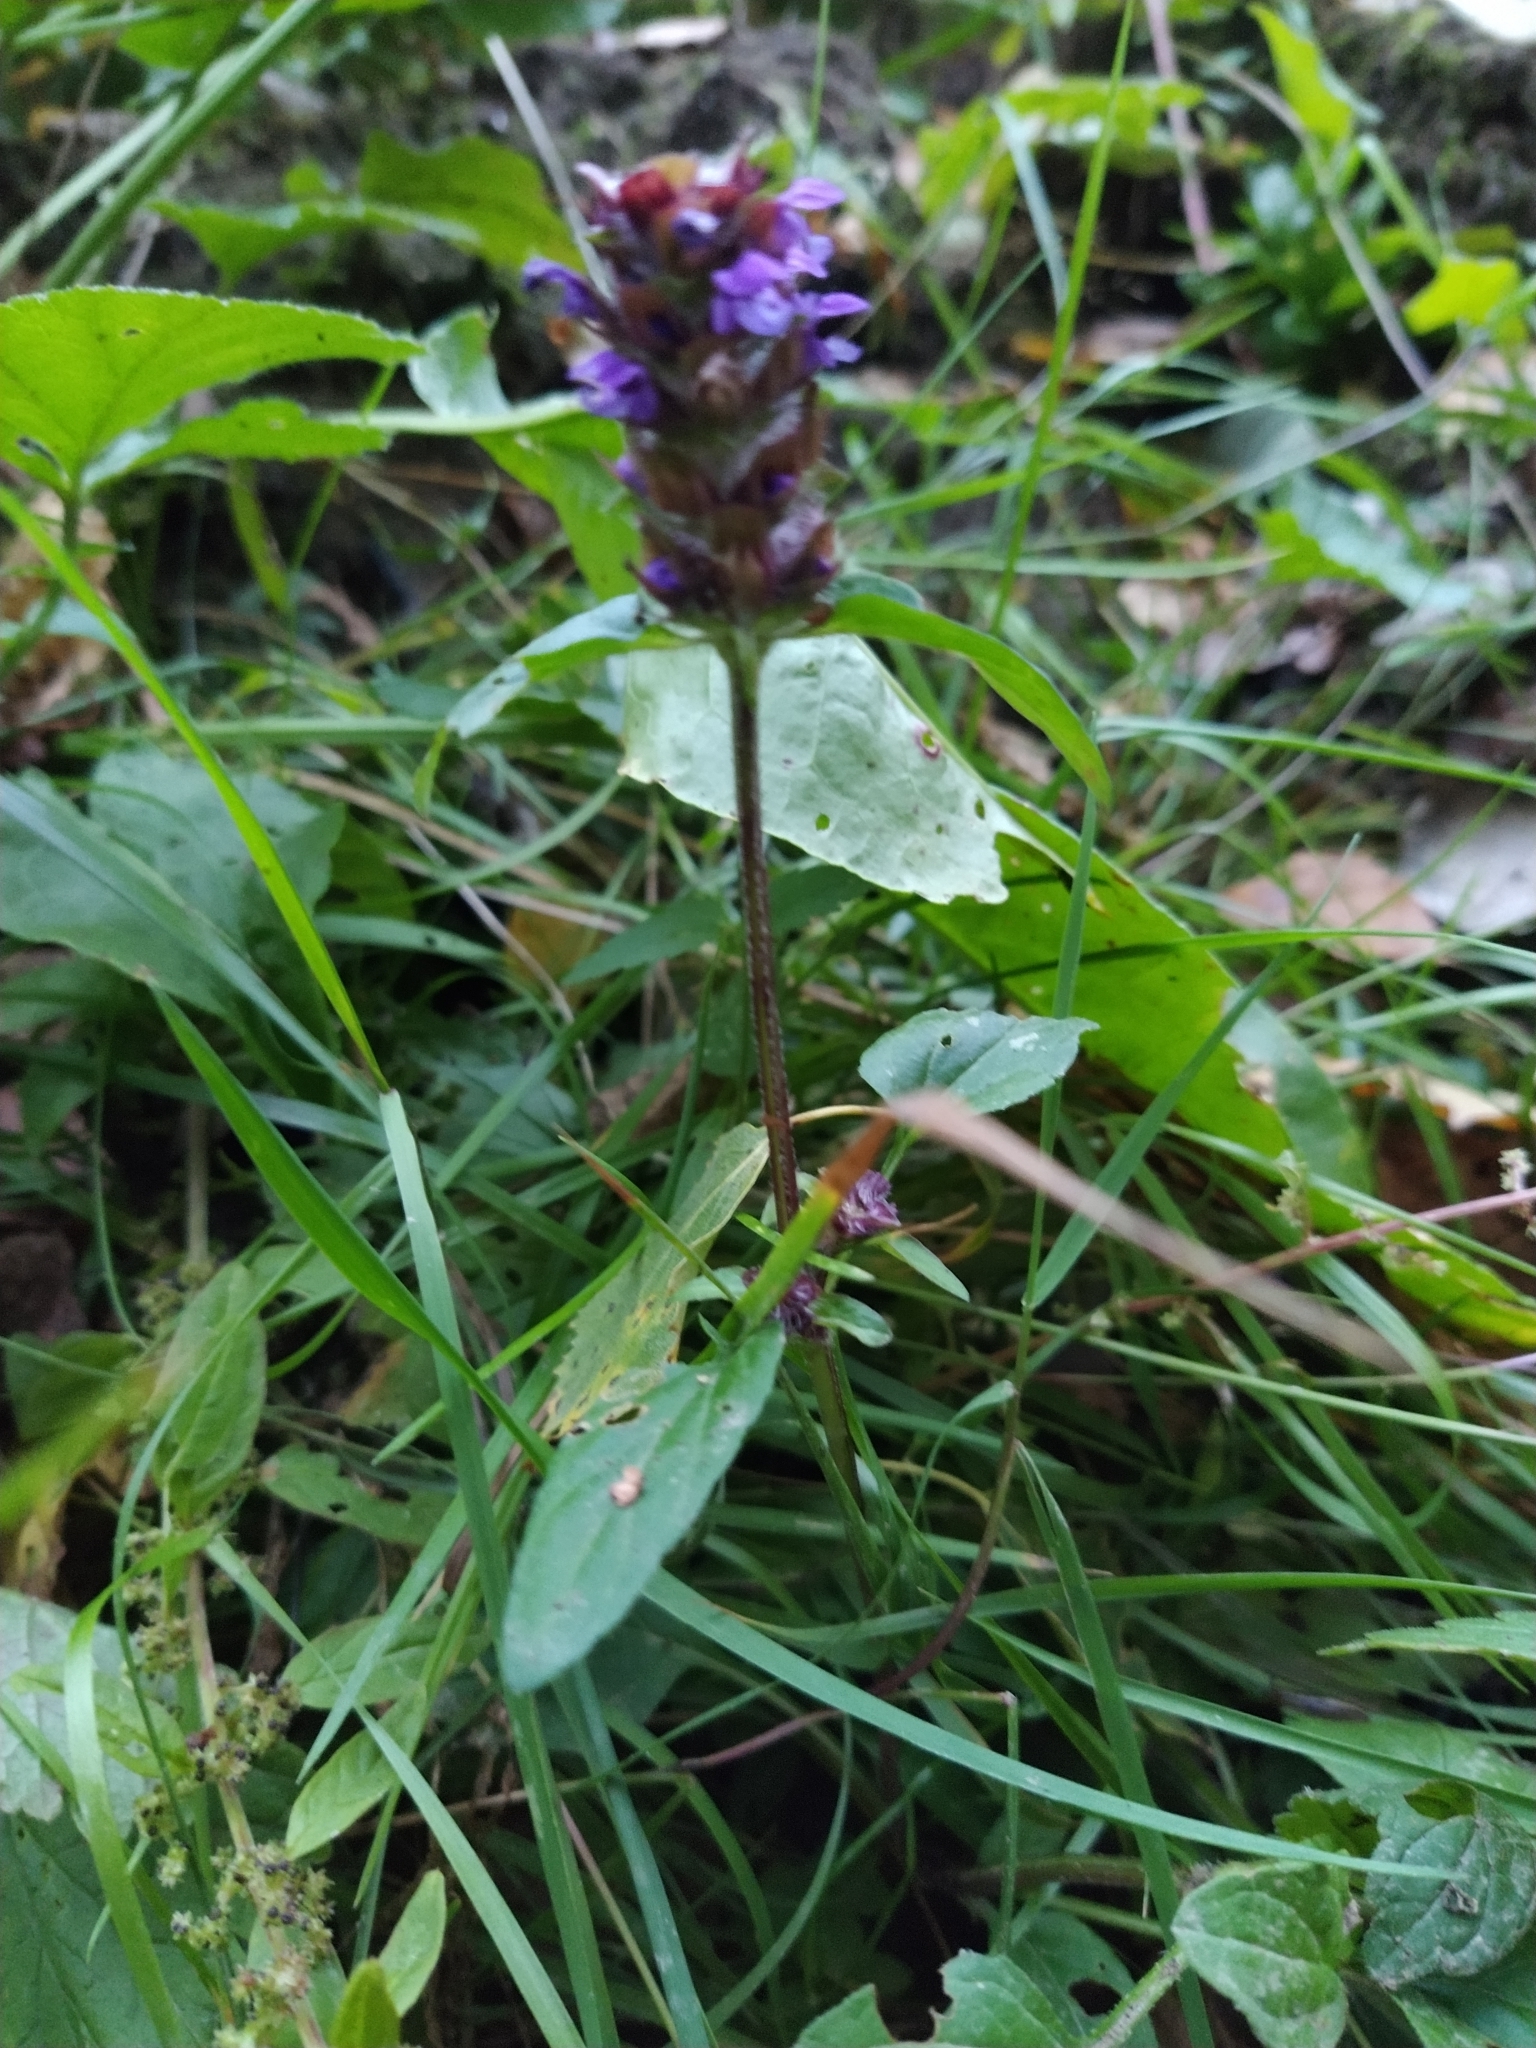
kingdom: Plantae
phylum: Tracheophyta
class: Magnoliopsida
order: Lamiales
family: Lamiaceae
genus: Prunella
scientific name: Prunella vulgaris
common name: Heal-all
